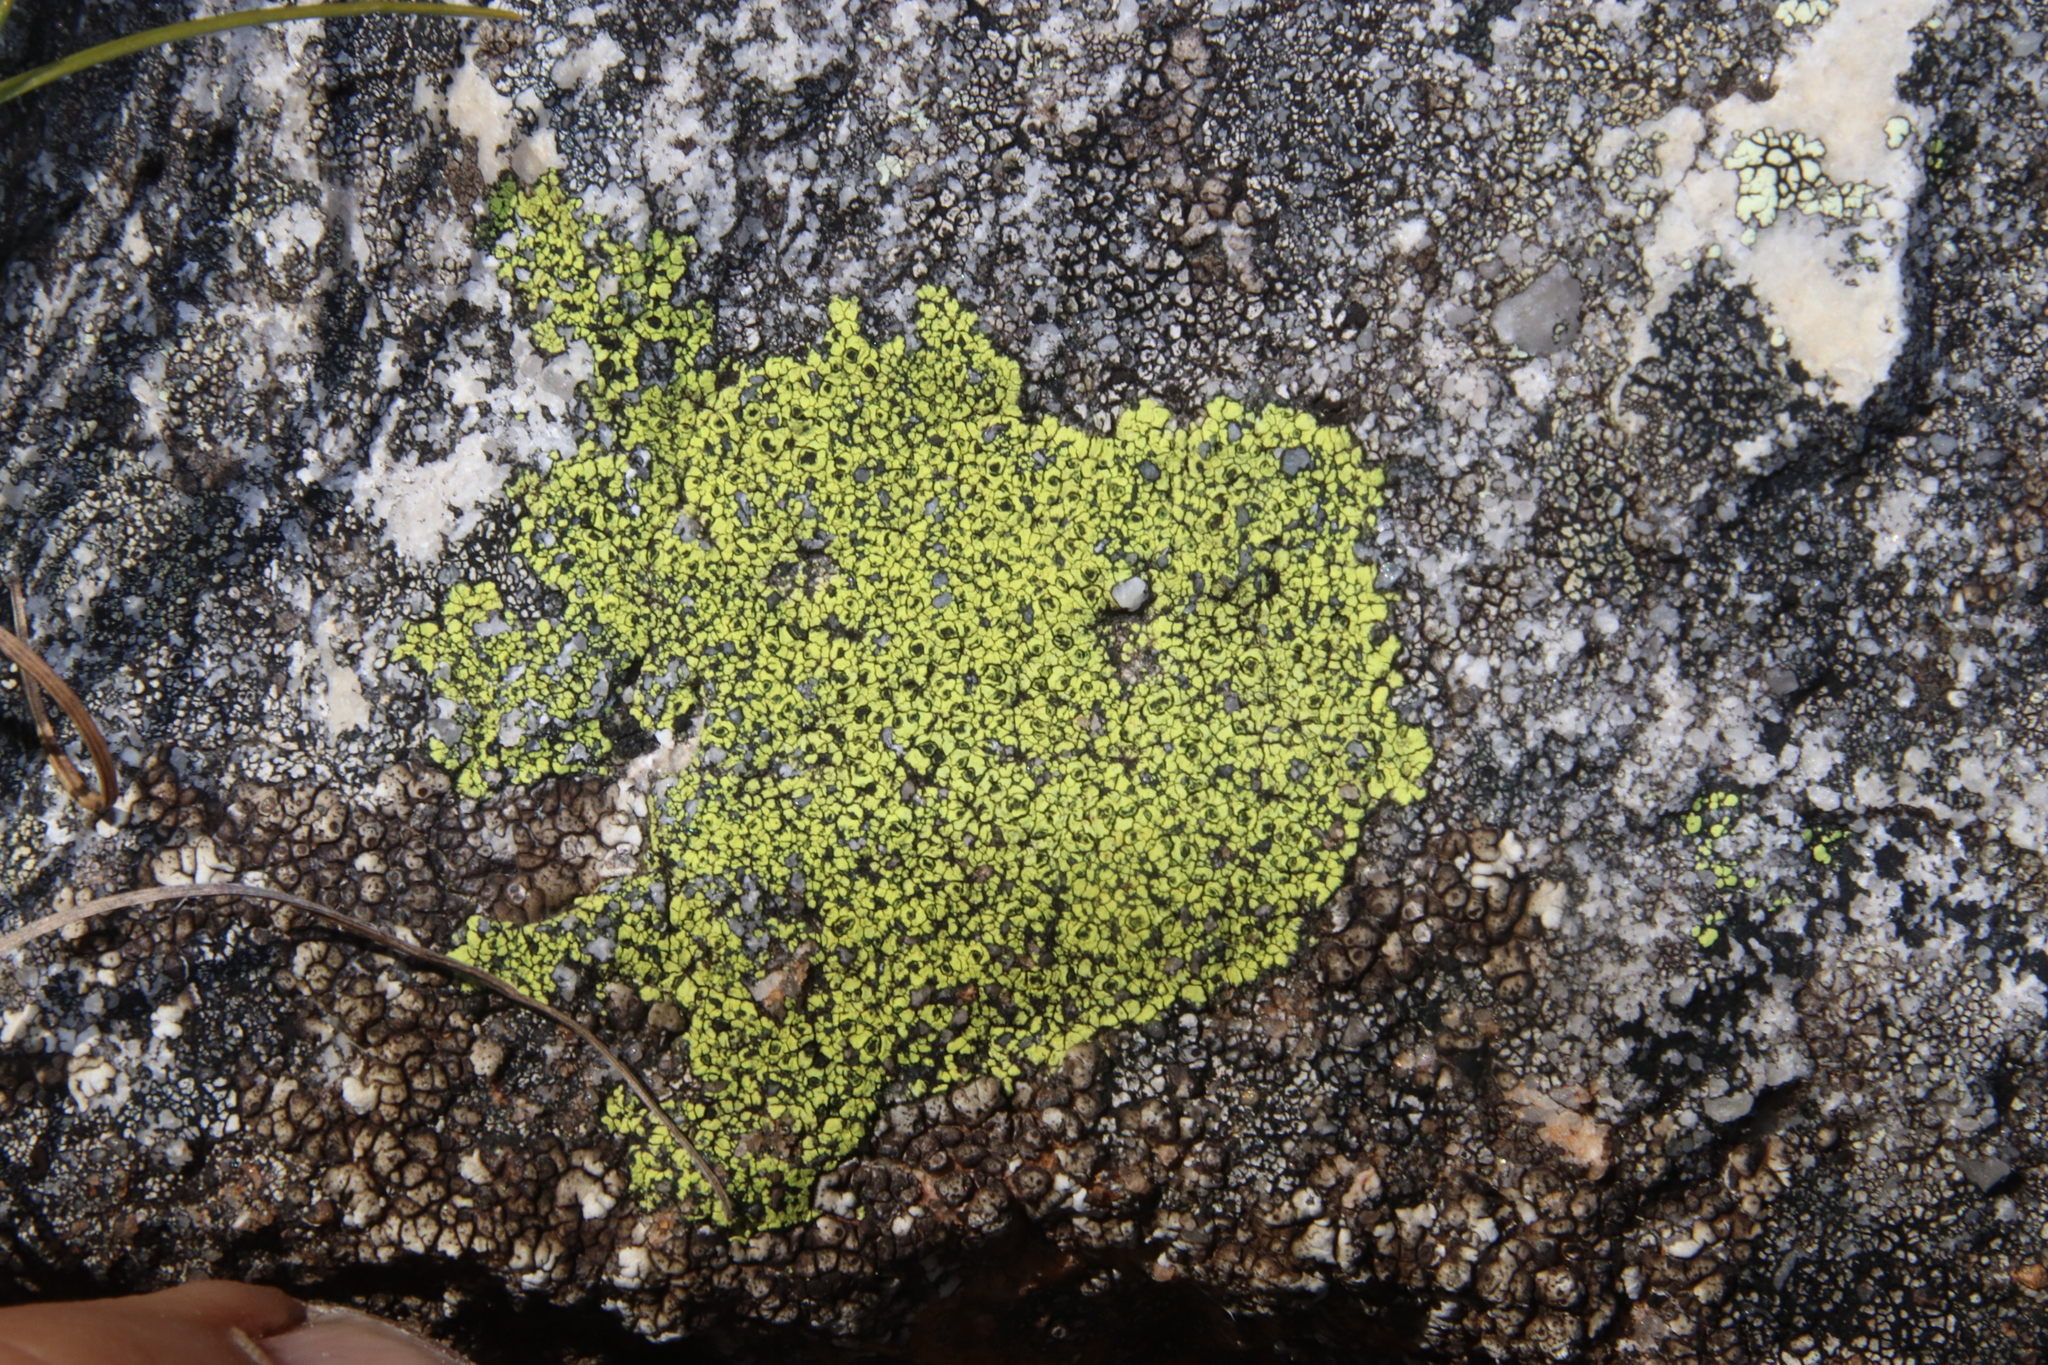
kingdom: Fungi
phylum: Ascomycota
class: Lecanoromycetes
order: Rhizocarpales
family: Rhizocarpaceae
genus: Rhizocarpon
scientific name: Rhizocarpon lecanorinum
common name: Crescent map lichen
